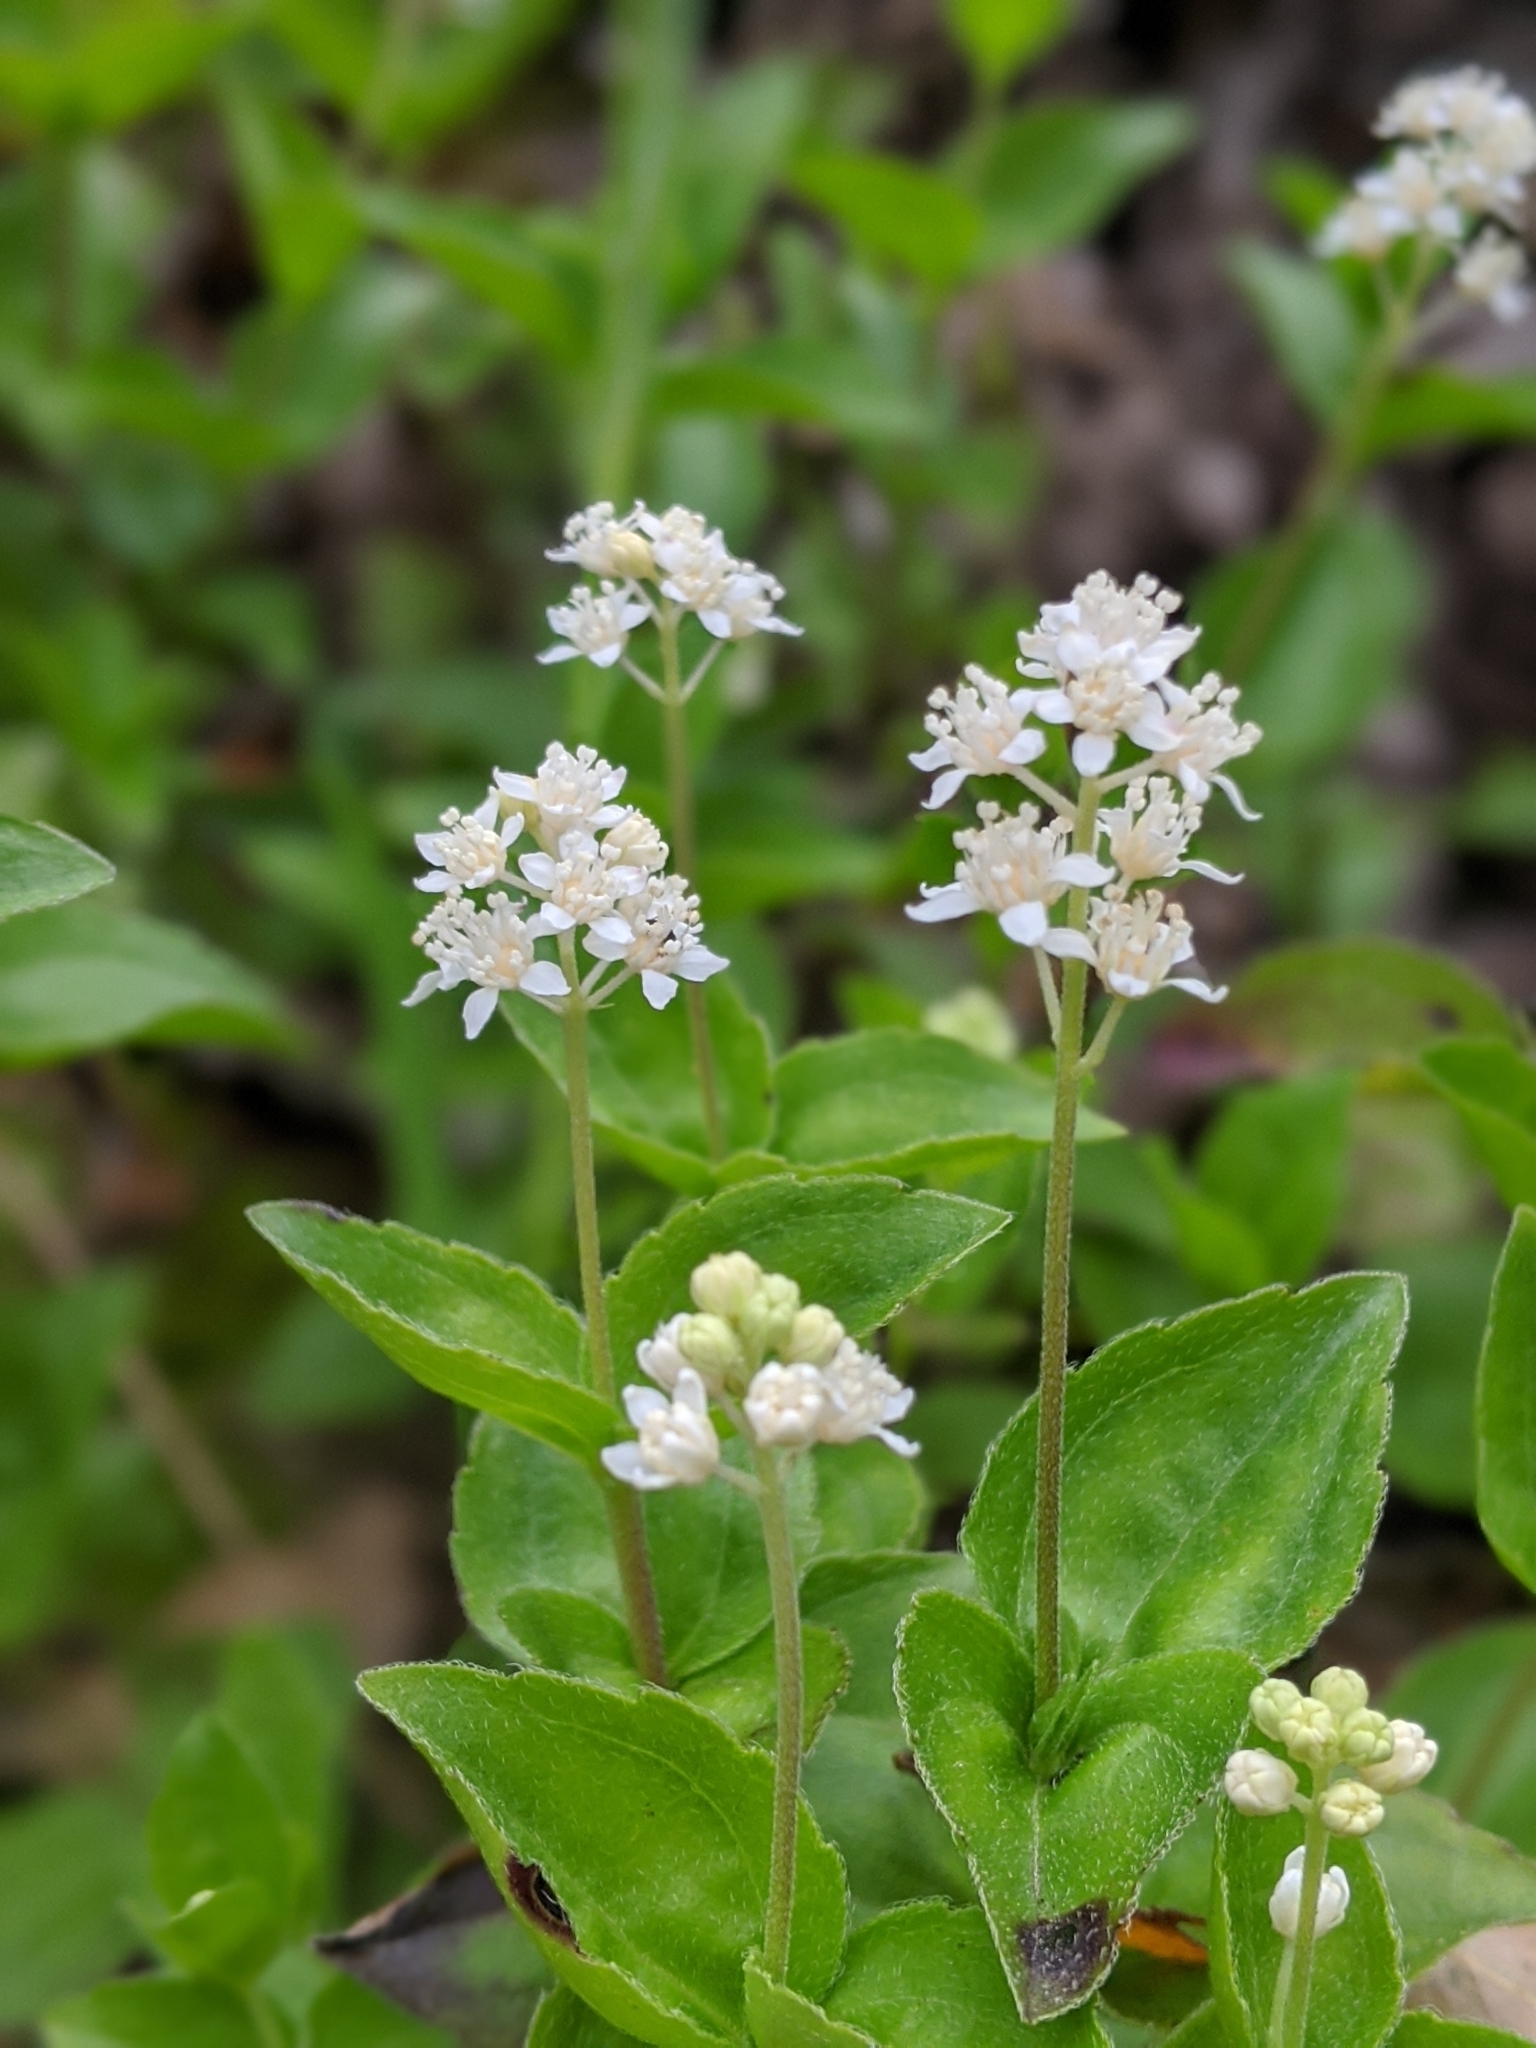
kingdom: Plantae
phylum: Tracheophyta
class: Magnoliopsida
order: Cornales
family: Hydrangeaceae
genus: Whipplea
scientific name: Whipplea modesta
